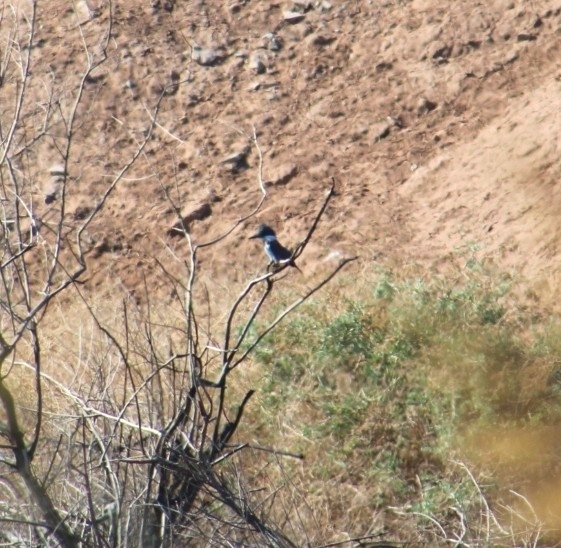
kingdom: Animalia
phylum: Chordata
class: Aves
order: Coraciiformes
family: Alcedinidae
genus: Megaceryle
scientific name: Megaceryle alcyon
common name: Belted kingfisher
